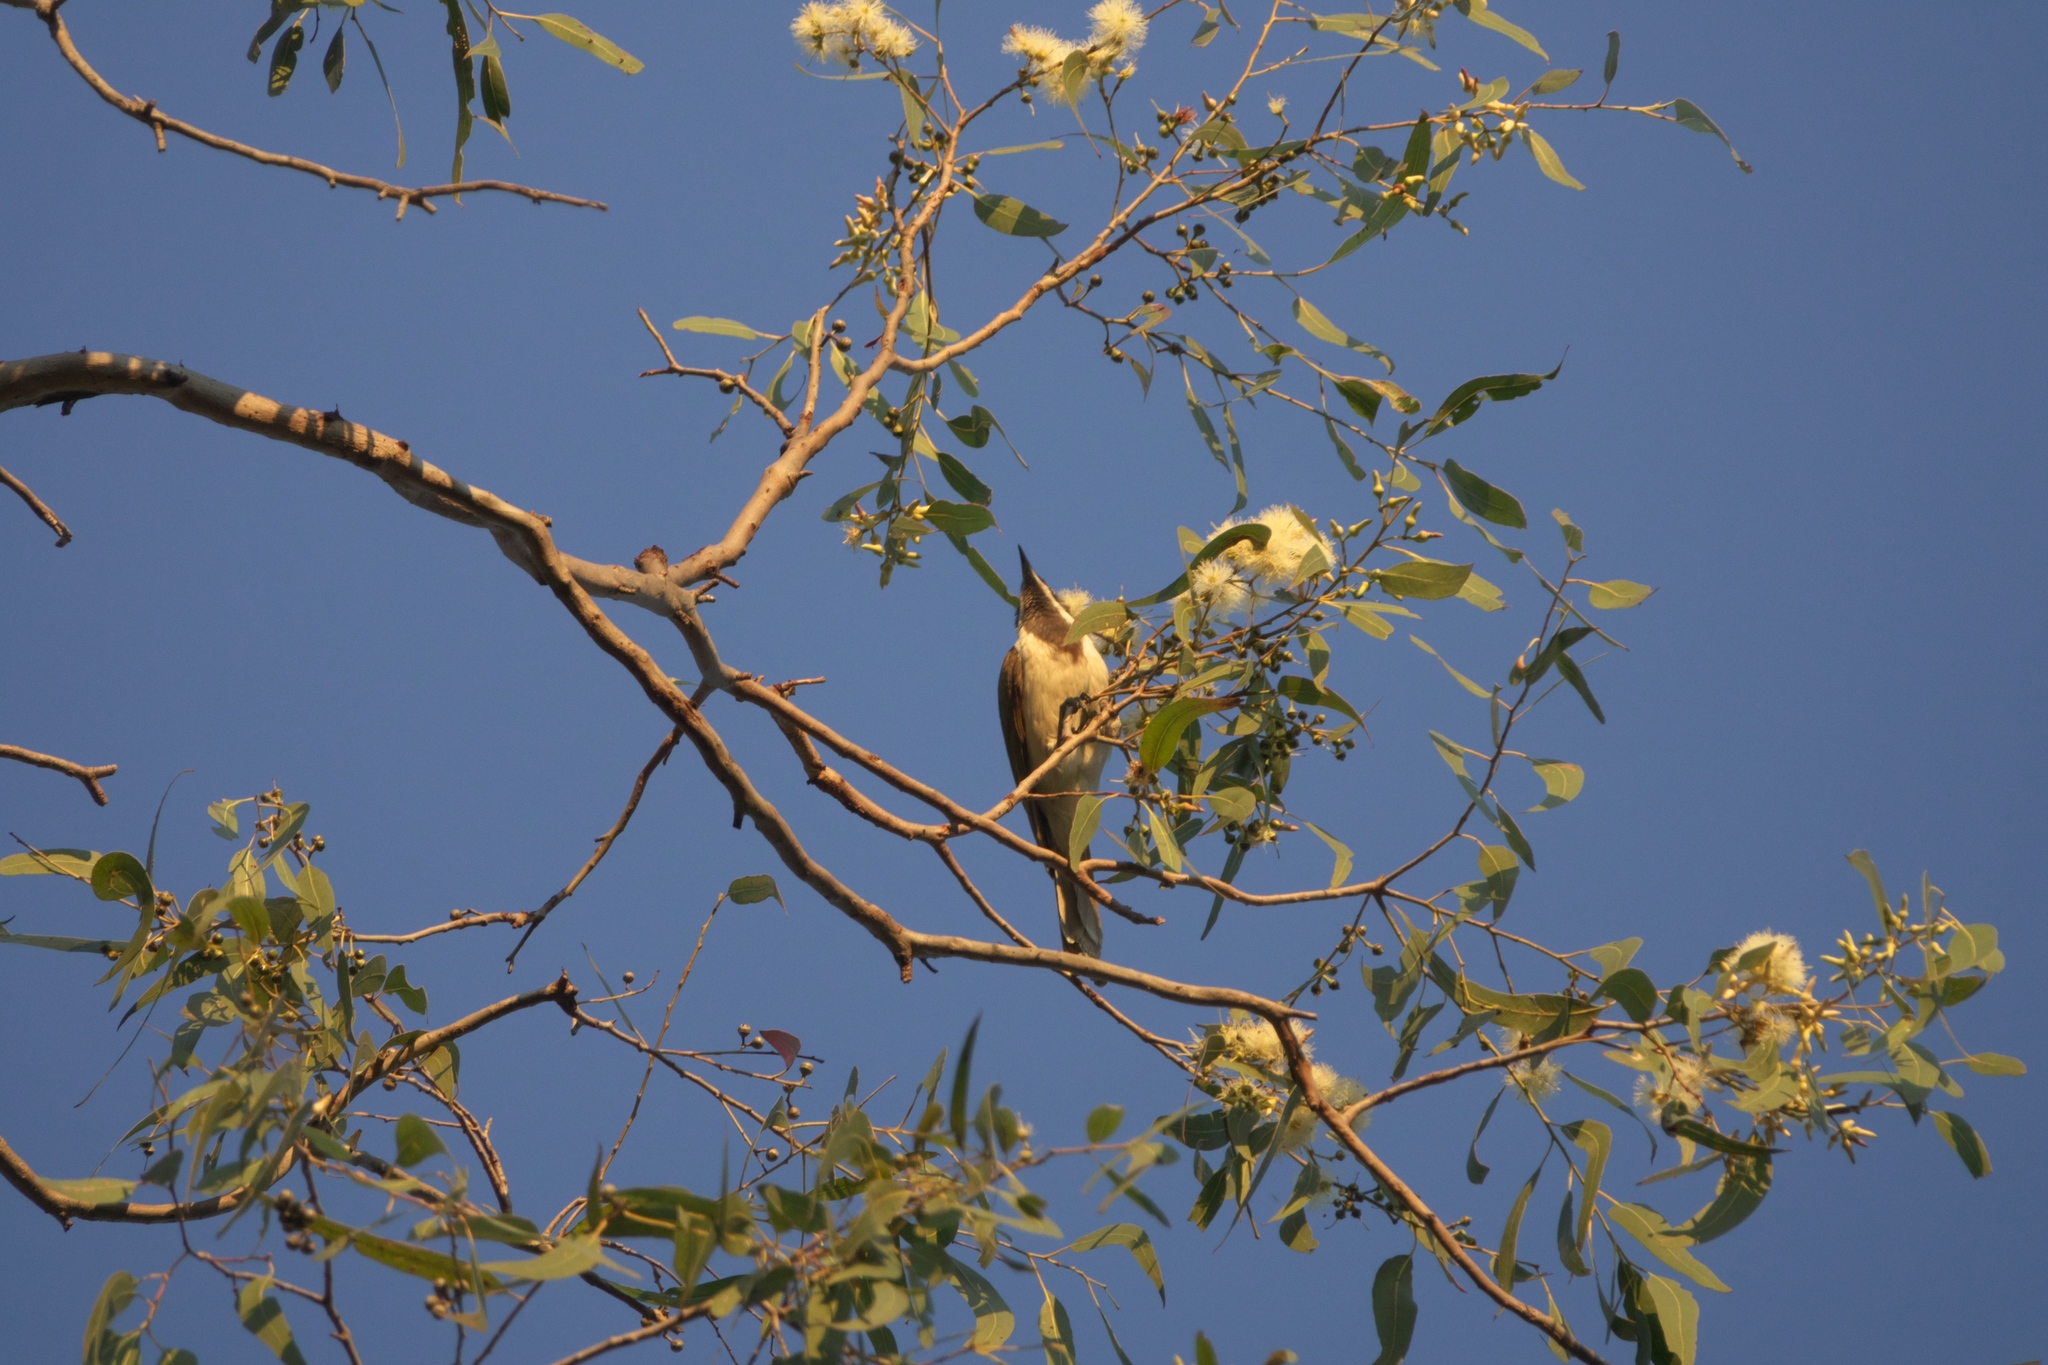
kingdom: Plantae
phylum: Tracheophyta
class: Magnoliopsida
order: Myrtales
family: Myrtaceae
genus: Eucalyptus
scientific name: Eucalyptus tereticornis
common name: Forest redgum
